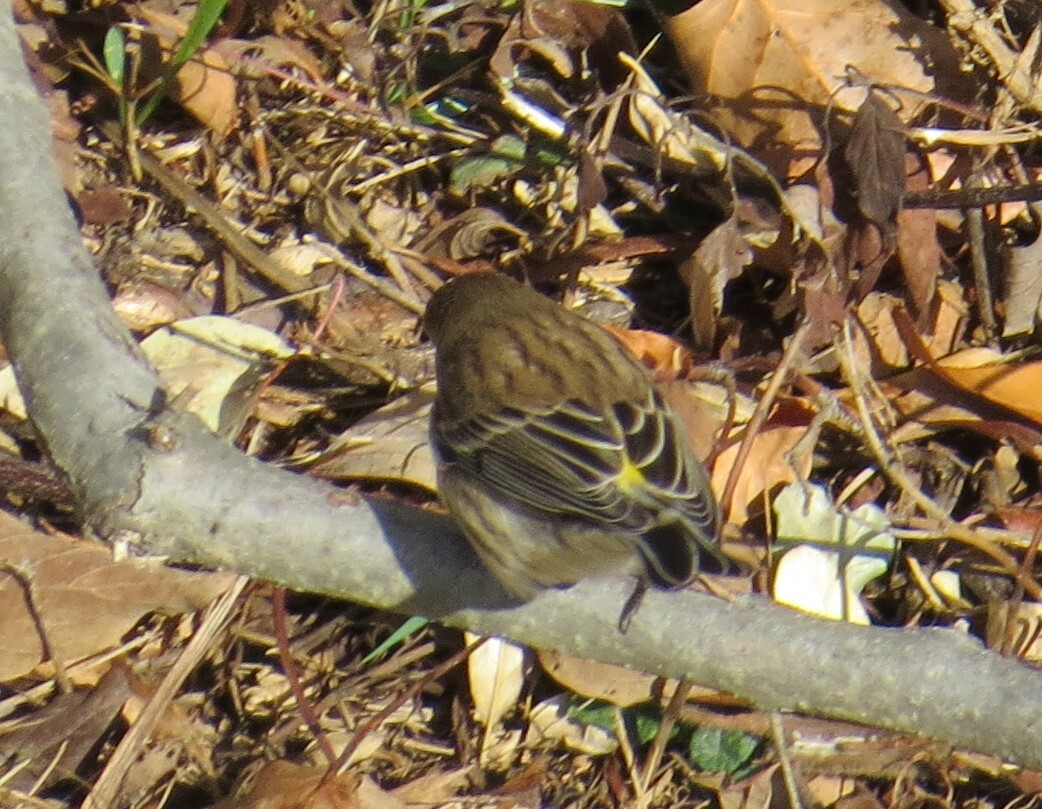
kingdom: Animalia
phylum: Chordata
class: Aves
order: Passeriformes
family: Parulidae
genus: Setophaga
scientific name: Setophaga coronata
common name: Myrtle warbler
